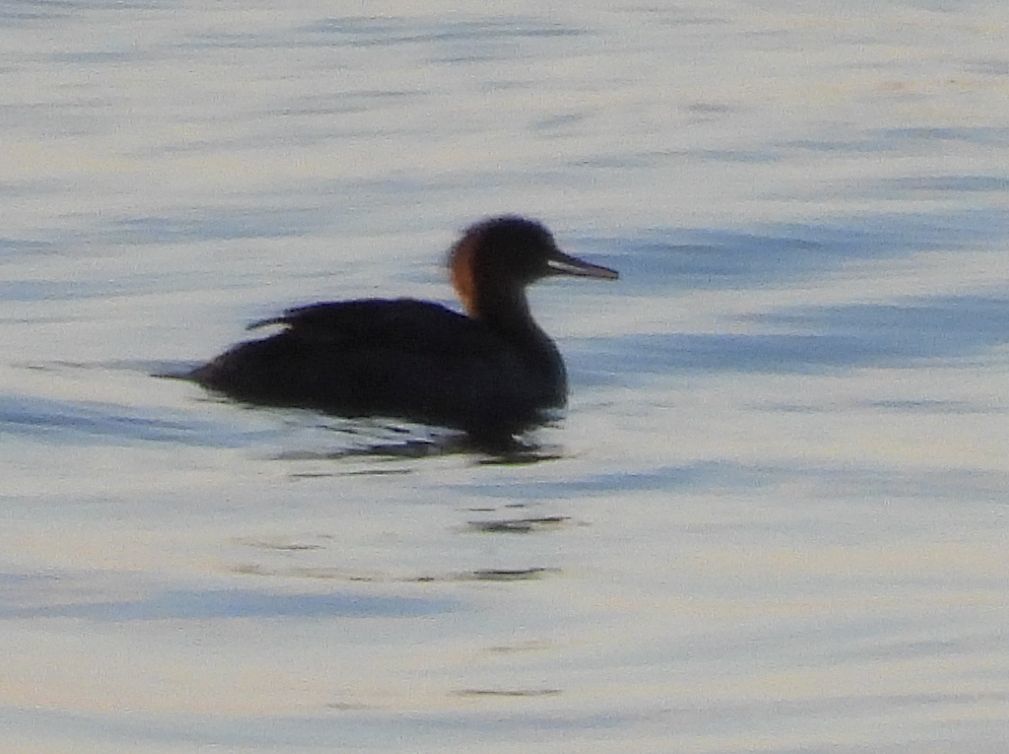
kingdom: Animalia
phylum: Chordata
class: Aves
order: Anseriformes
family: Anatidae
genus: Lophodytes
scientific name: Lophodytes cucullatus
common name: Hooded merganser
